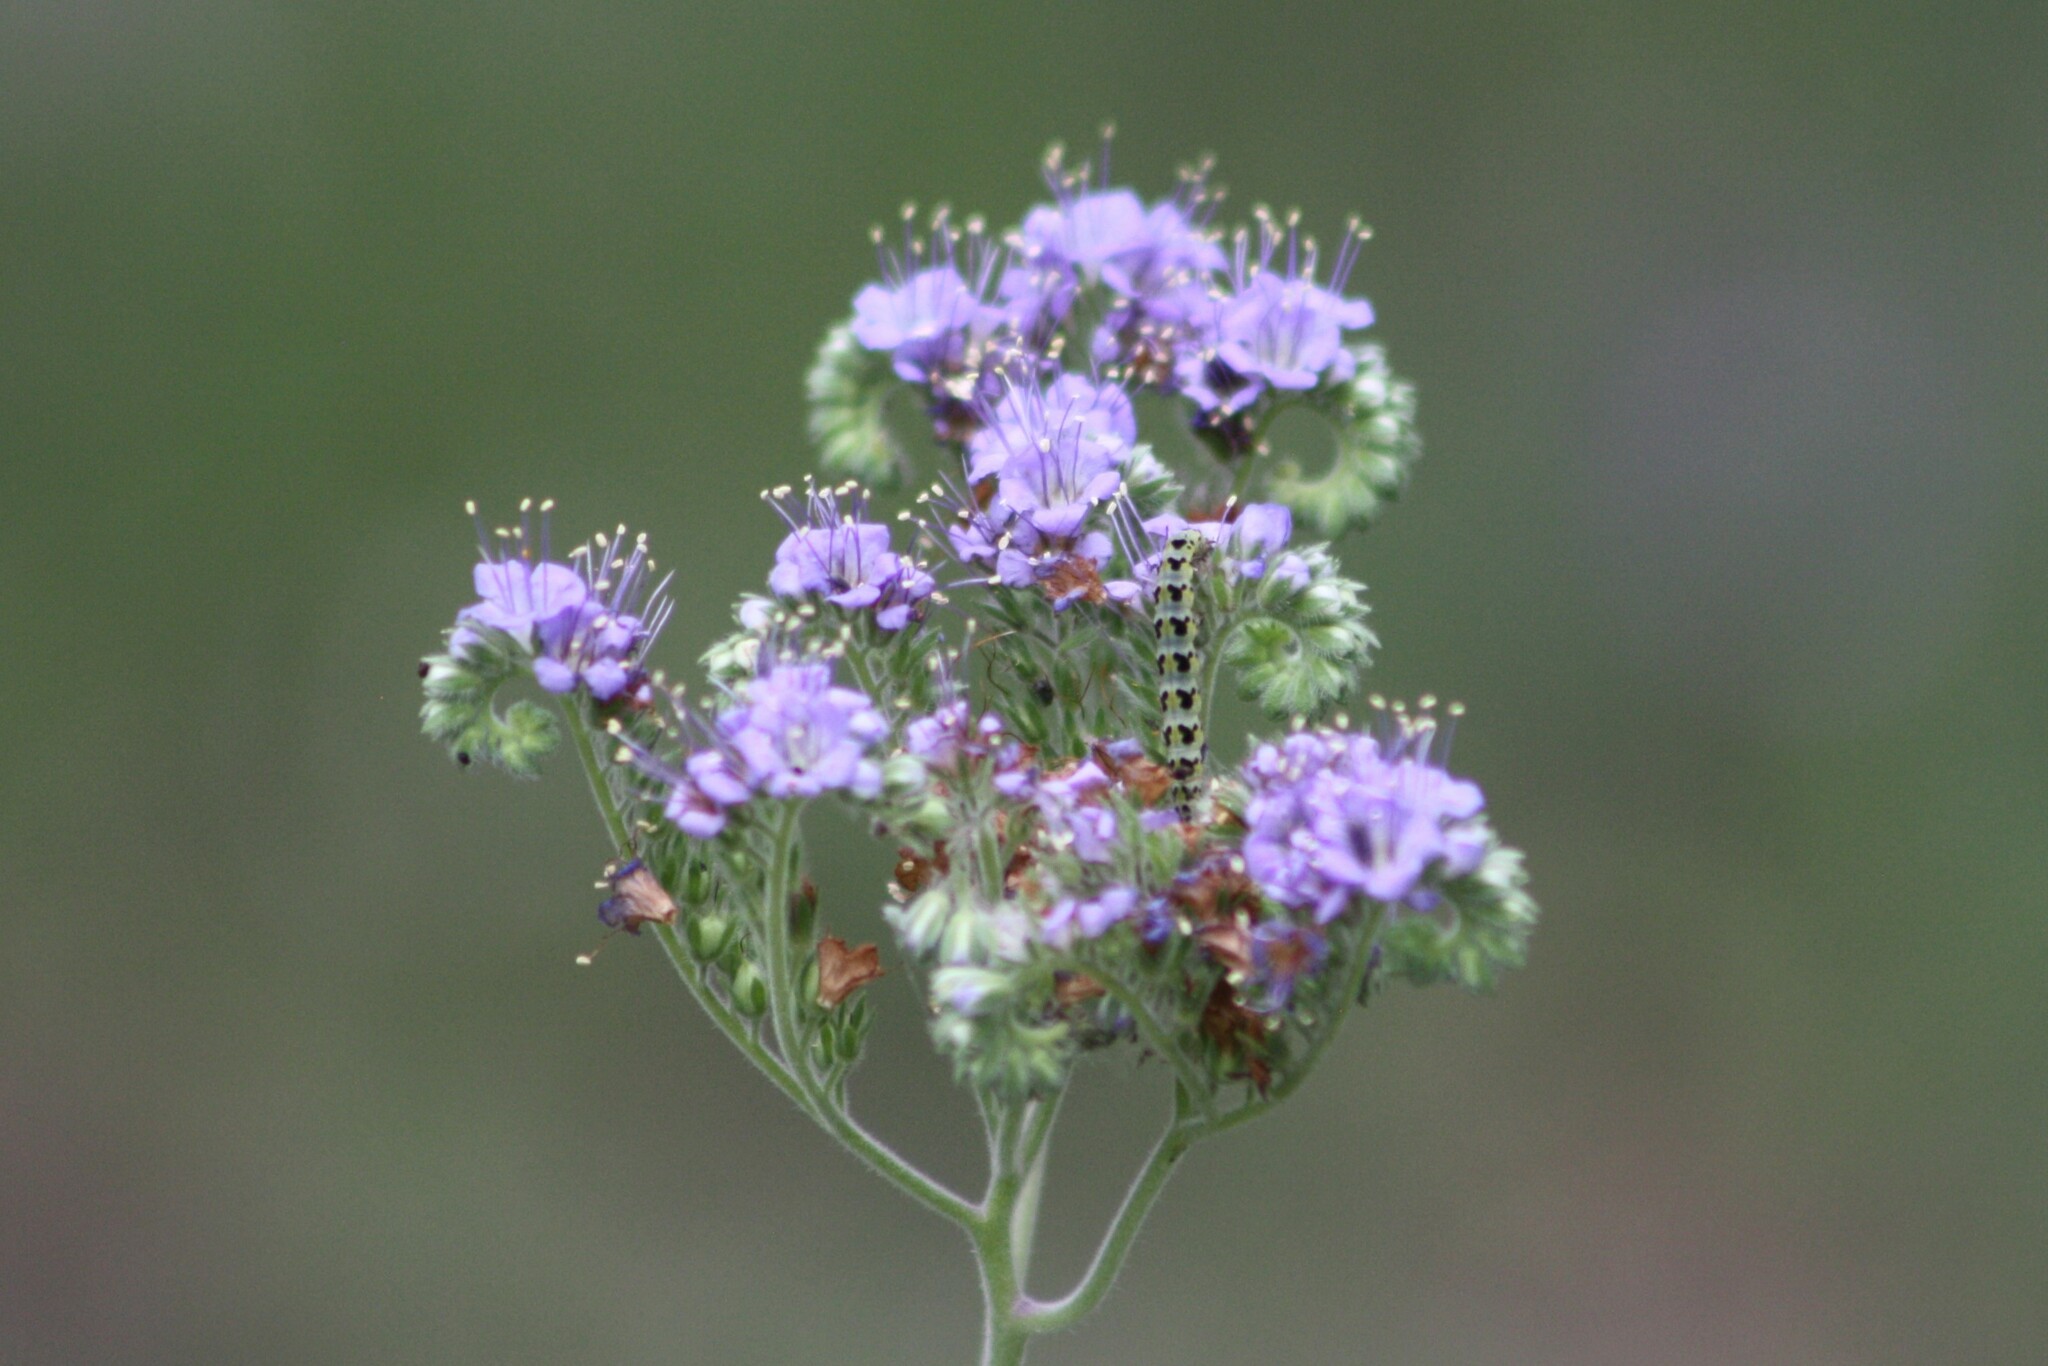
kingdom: Plantae
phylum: Tracheophyta
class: Magnoliopsida
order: Boraginales
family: Hydrophyllaceae
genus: Phacelia
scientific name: Phacelia congesta
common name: Blue curls
